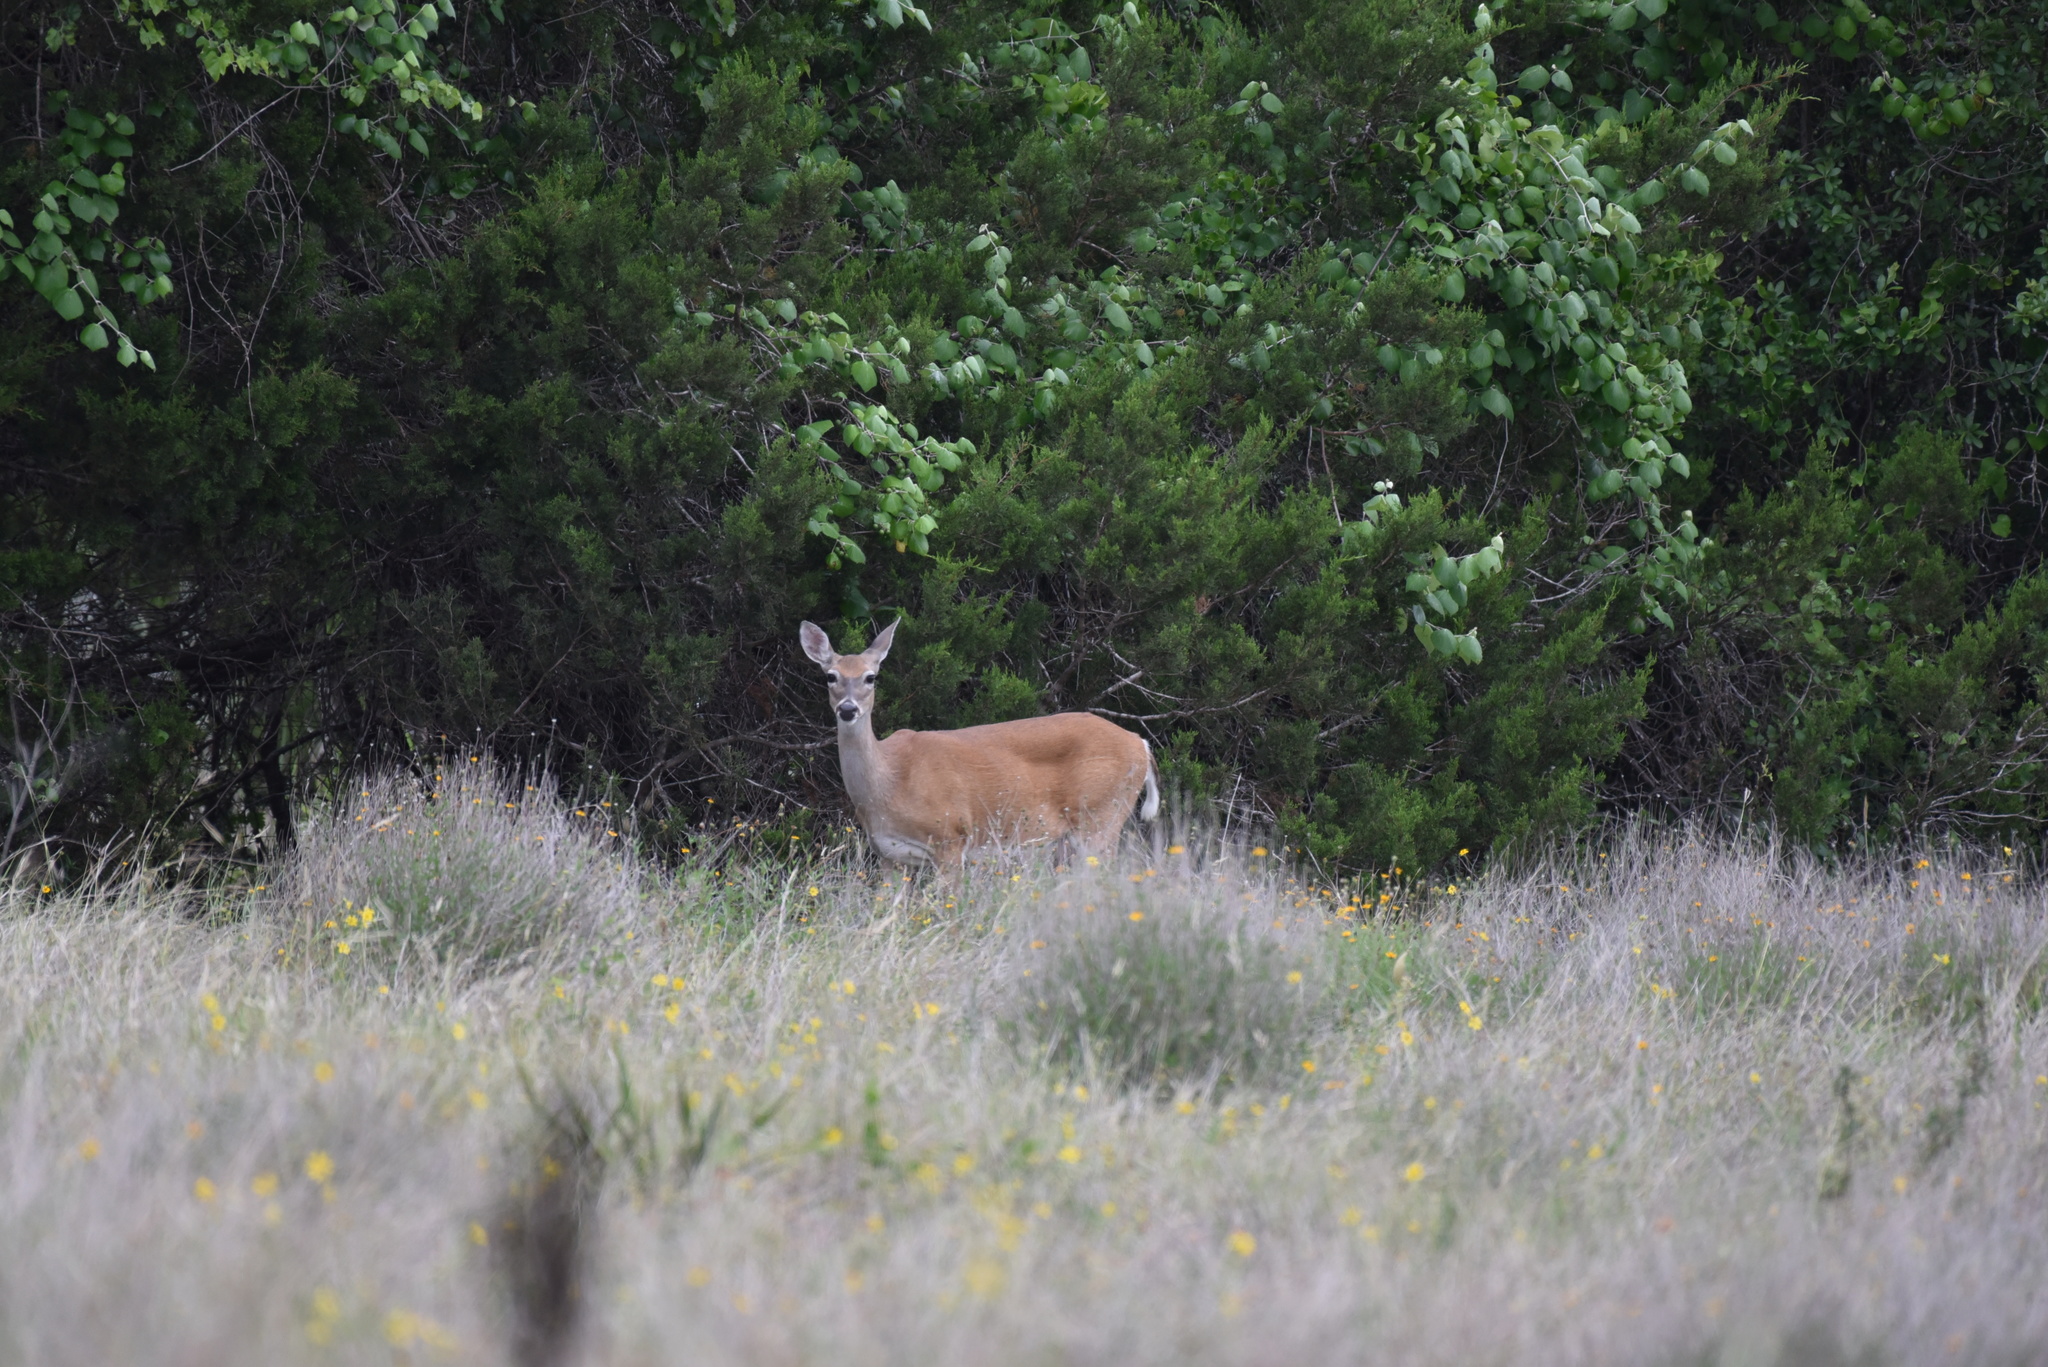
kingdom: Animalia
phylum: Chordata
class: Mammalia
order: Artiodactyla
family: Cervidae
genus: Odocoileus
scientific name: Odocoileus virginianus
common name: White-tailed deer
